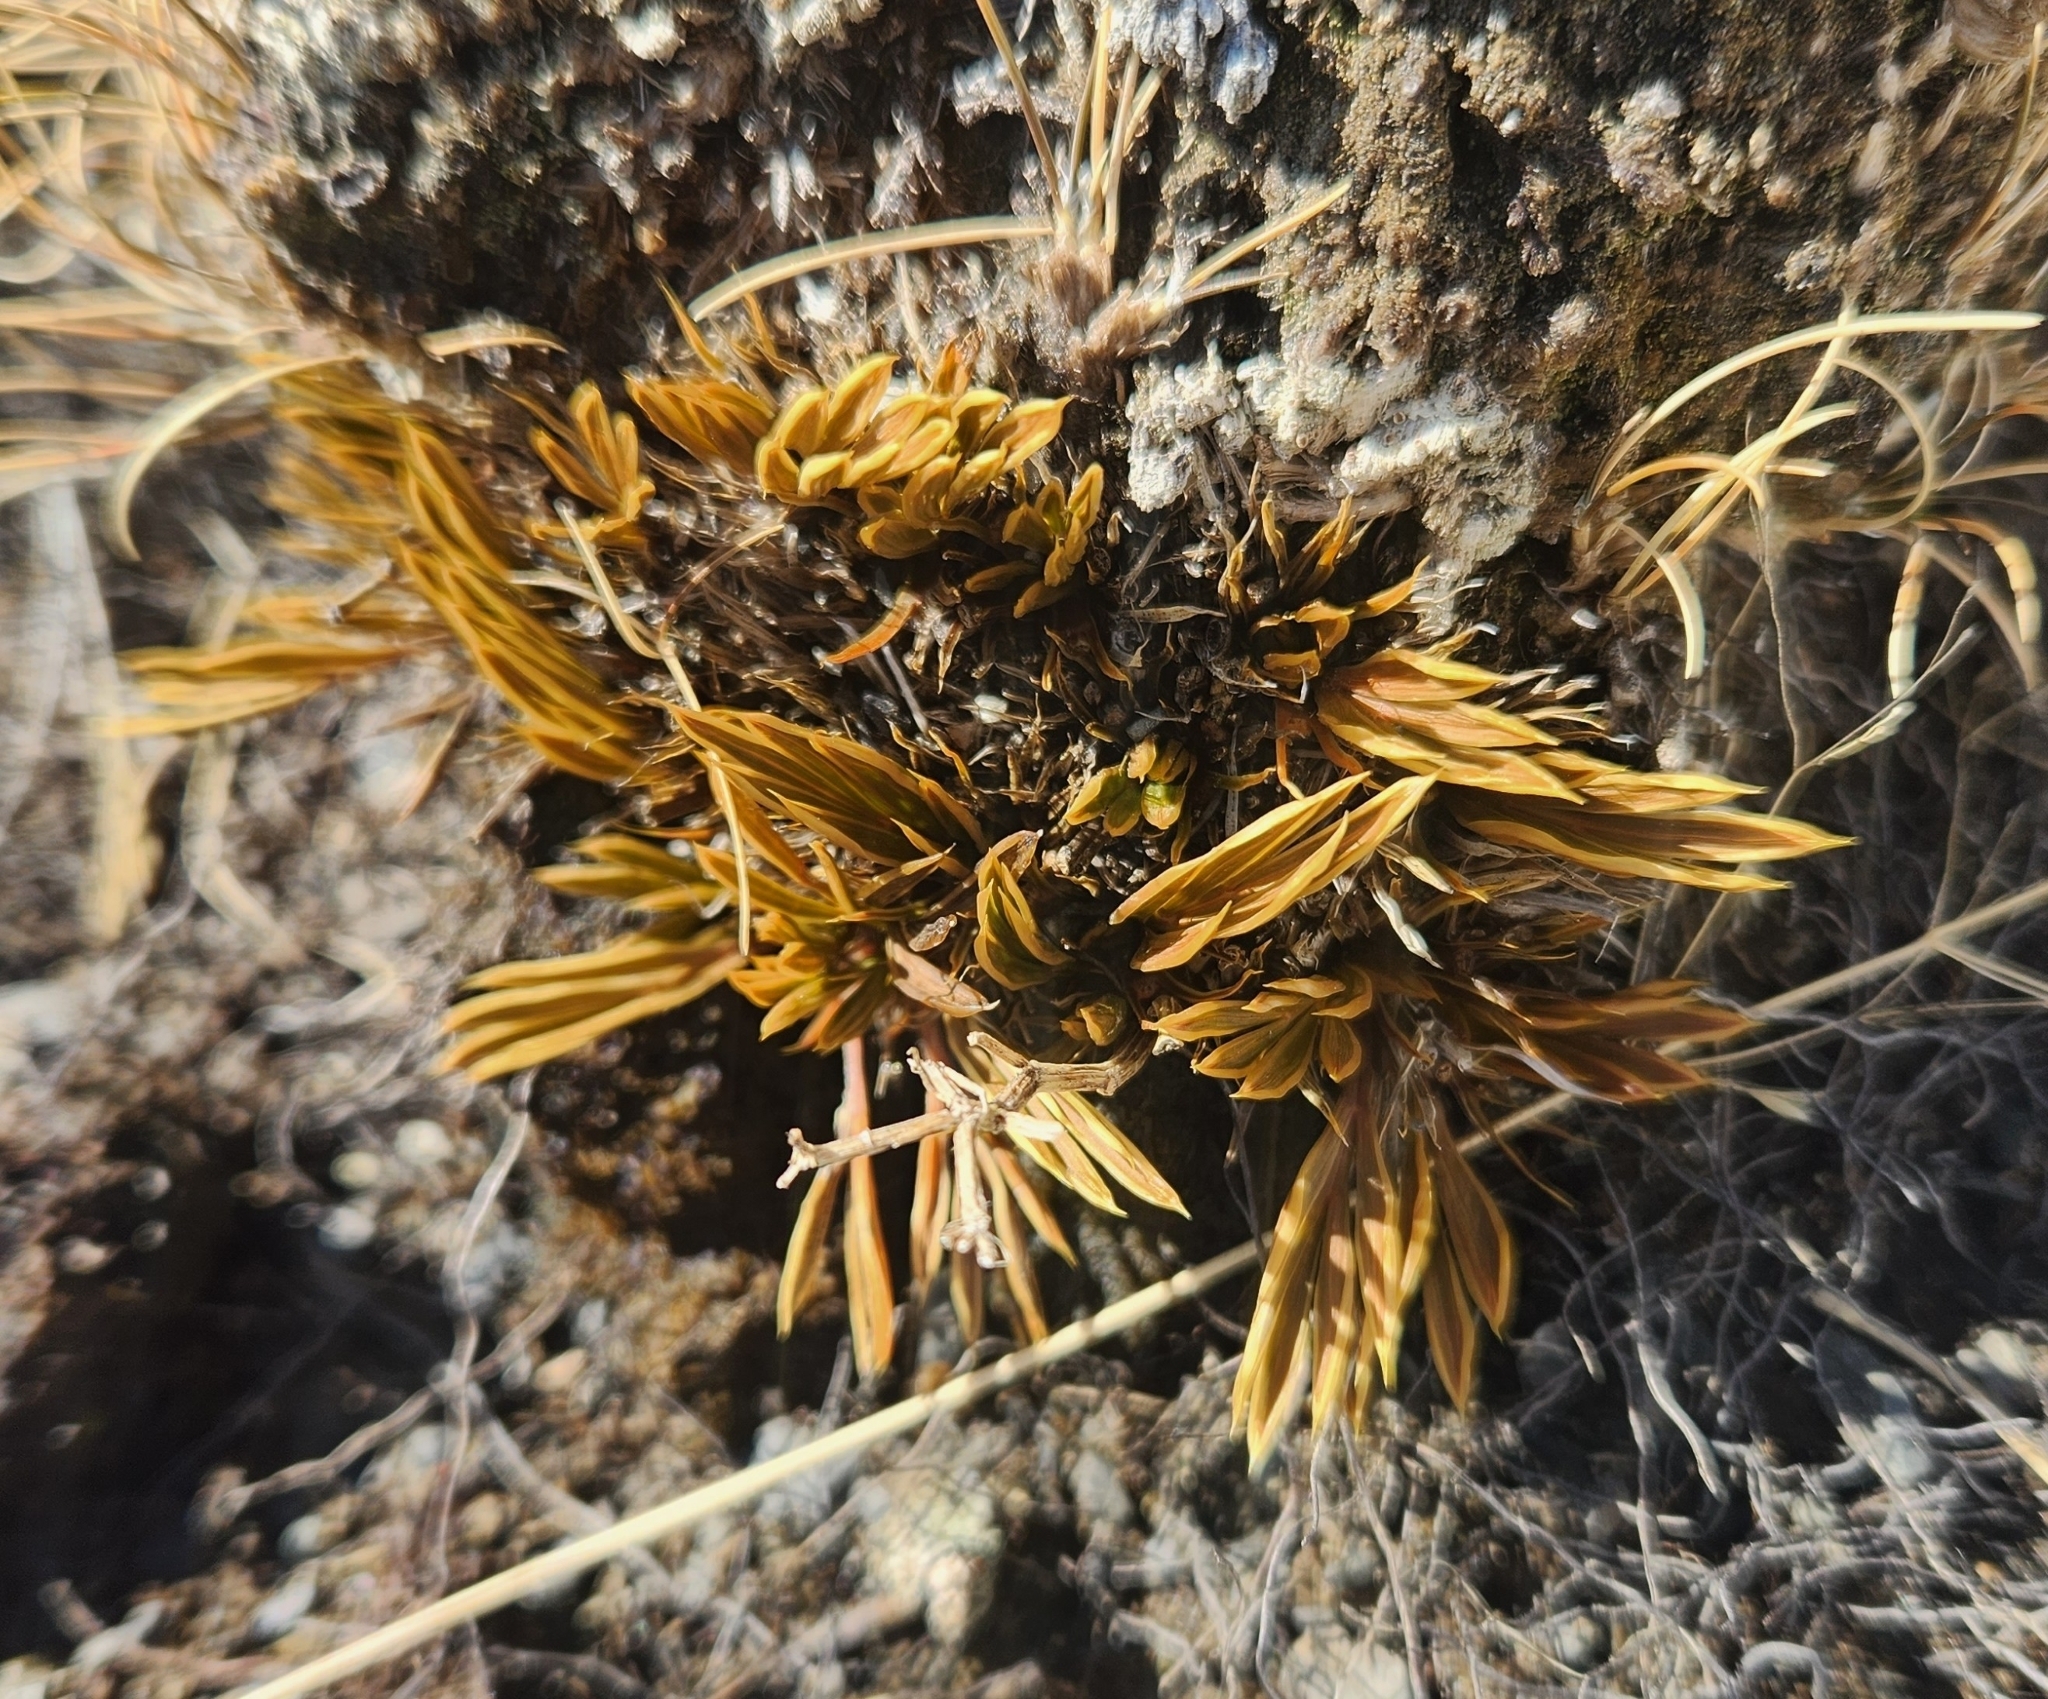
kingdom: Plantae
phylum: Tracheophyta
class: Magnoliopsida
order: Apiales
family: Apiaceae
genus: Aciphylla
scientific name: Aciphylla monroi
